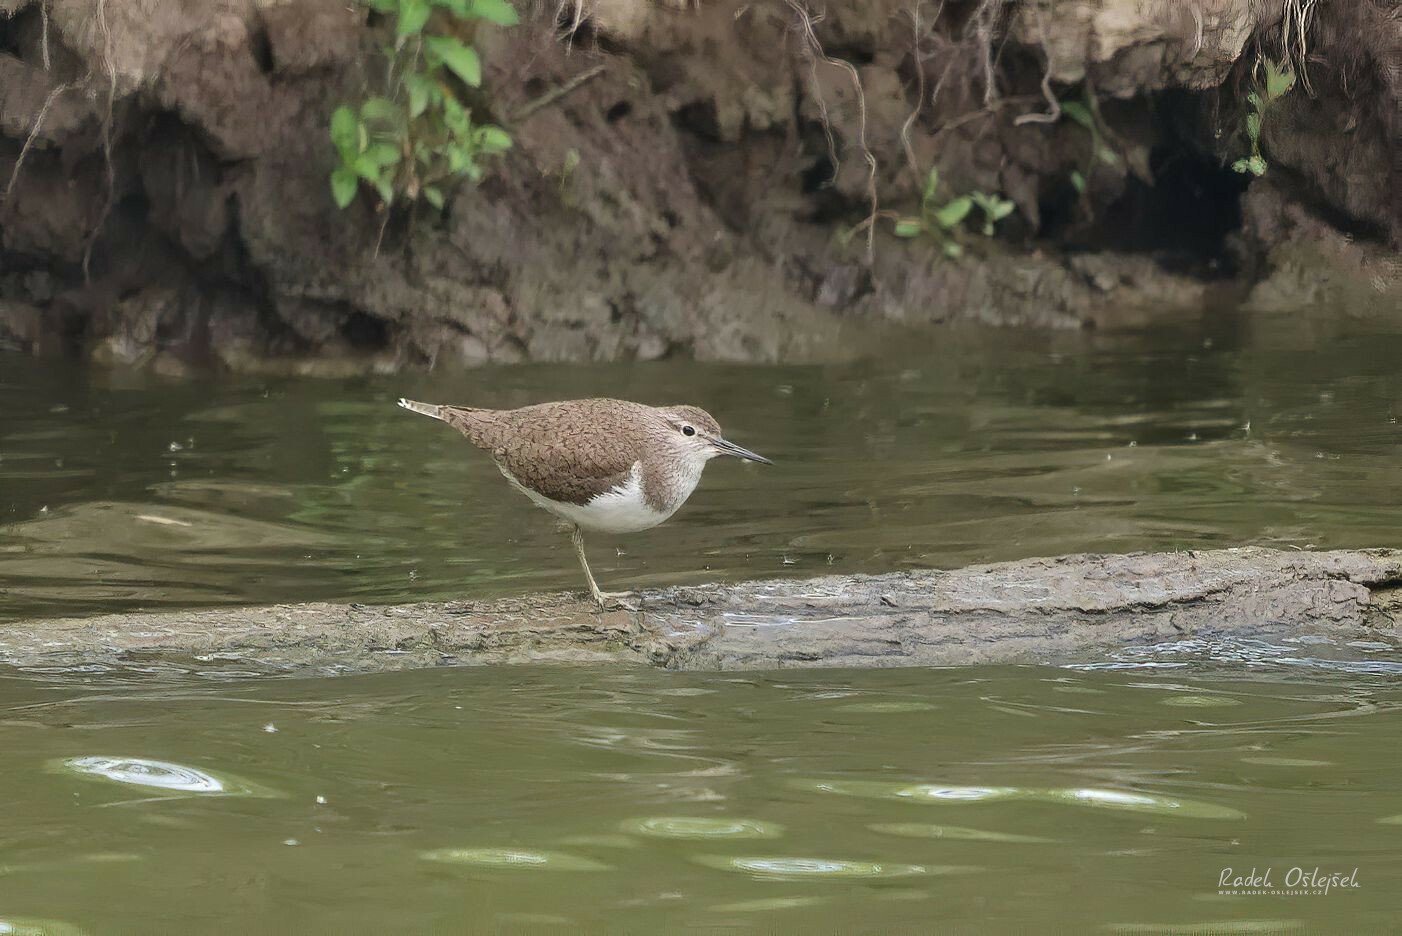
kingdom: Animalia
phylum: Chordata
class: Aves
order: Charadriiformes
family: Scolopacidae
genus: Actitis
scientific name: Actitis hypoleucos
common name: Common sandpiper
